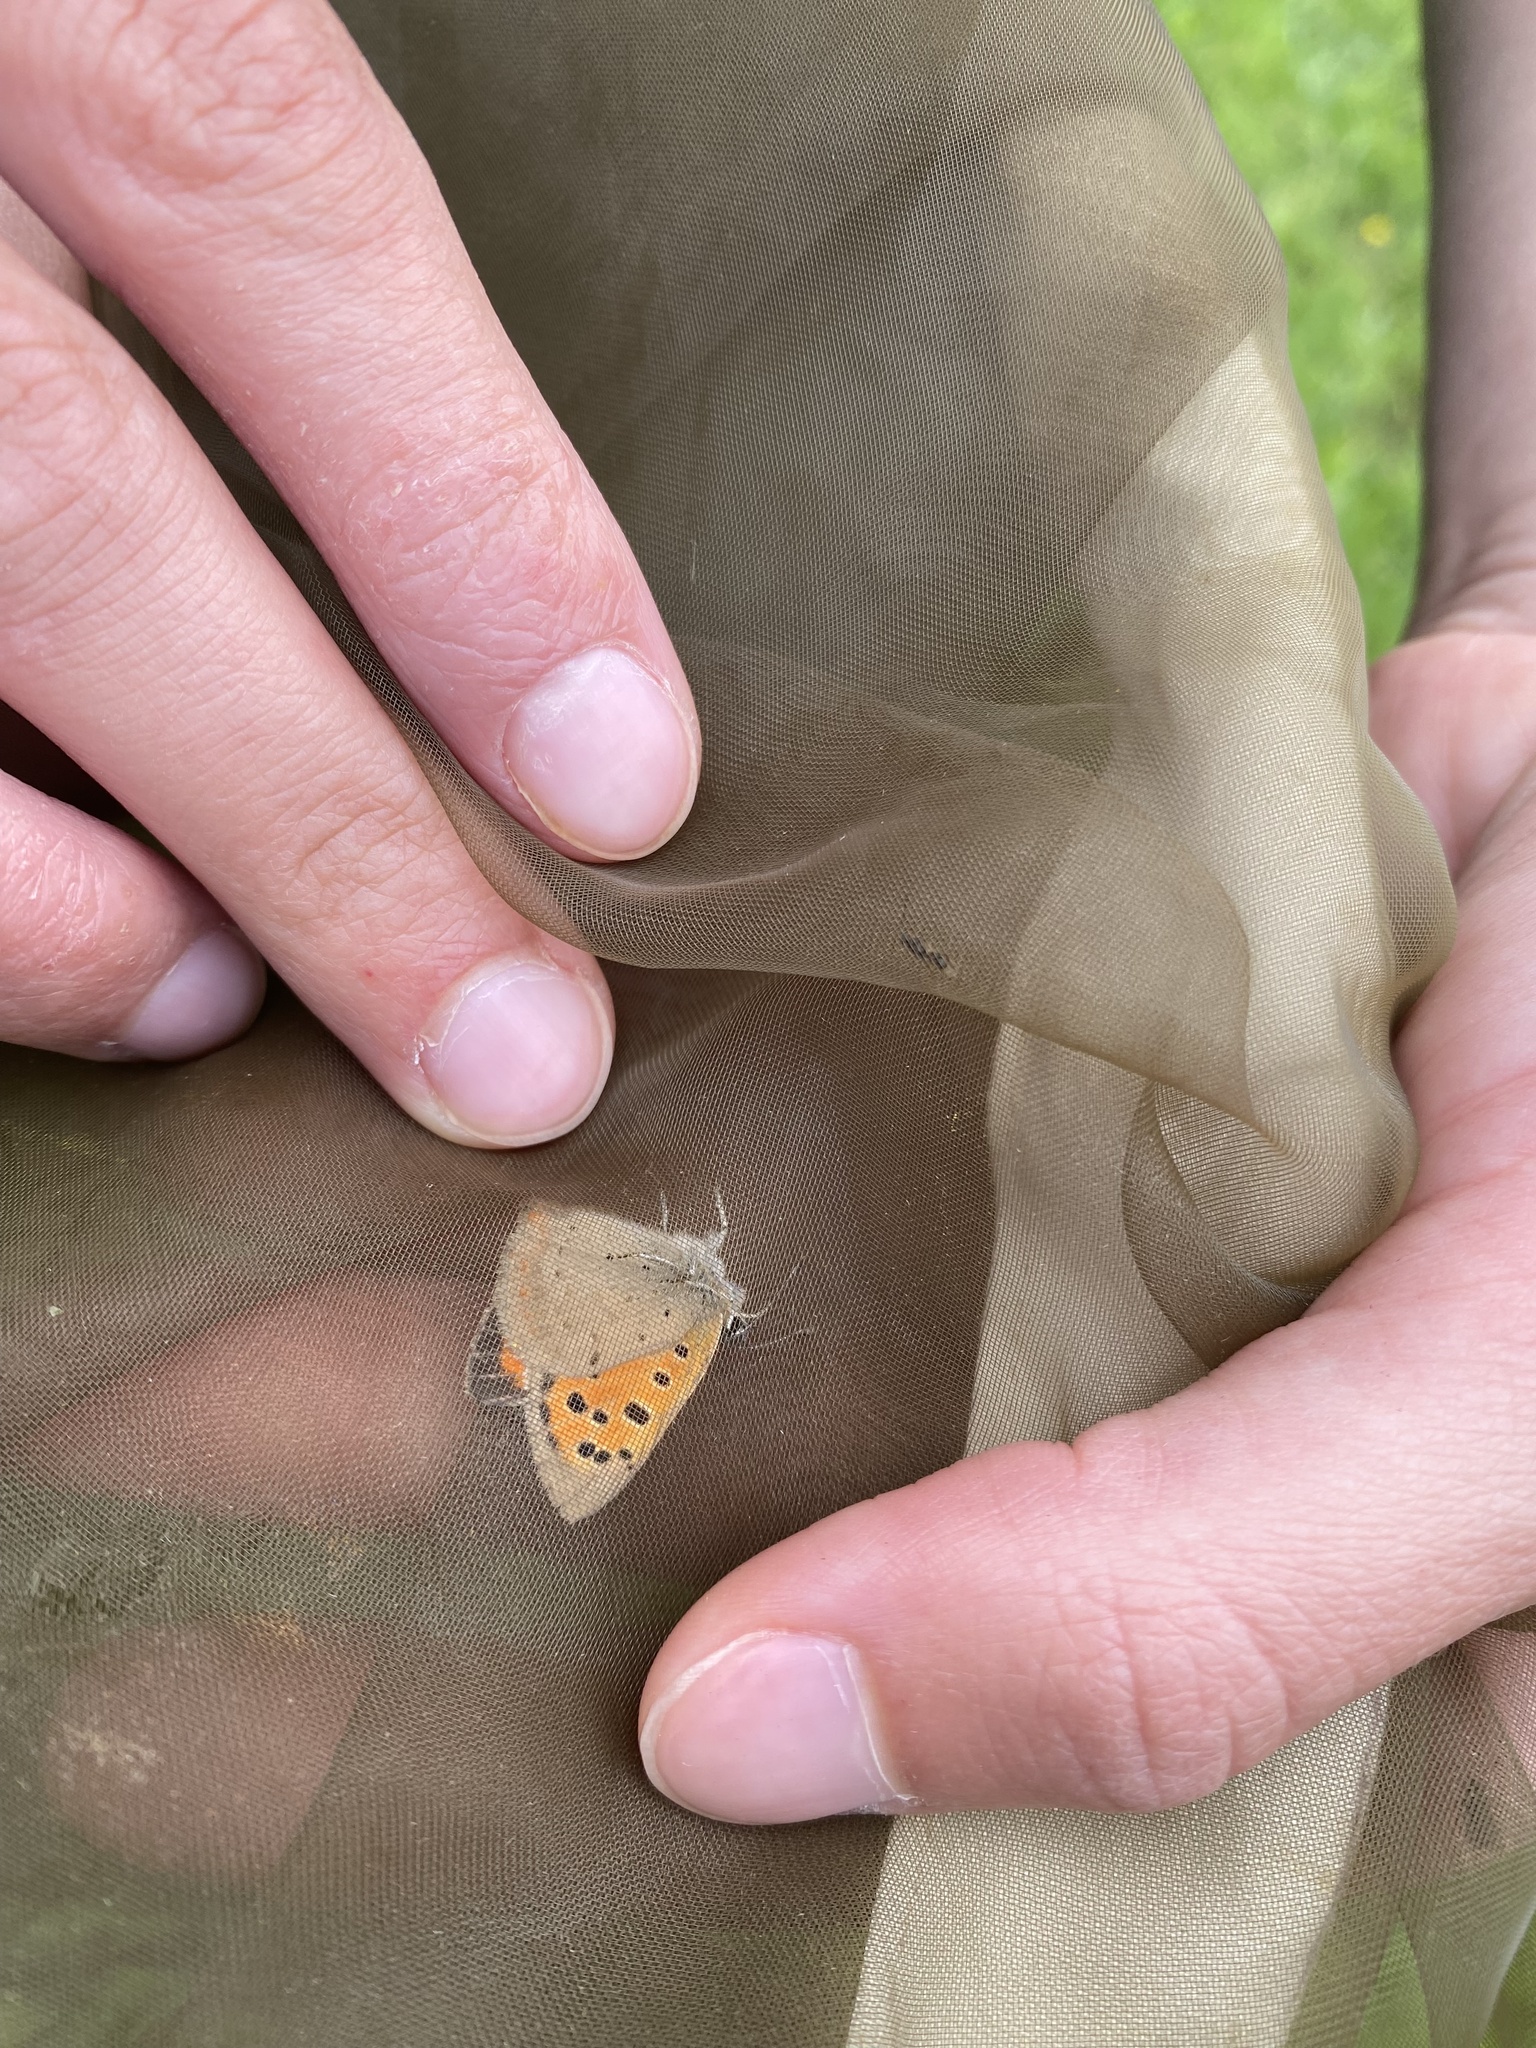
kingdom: Animalia
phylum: Arthropoda
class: Insecta
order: Lepidoptera
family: Lycaenidae
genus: Lycaena
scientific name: Lycaena phlaeas
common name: Small copper
